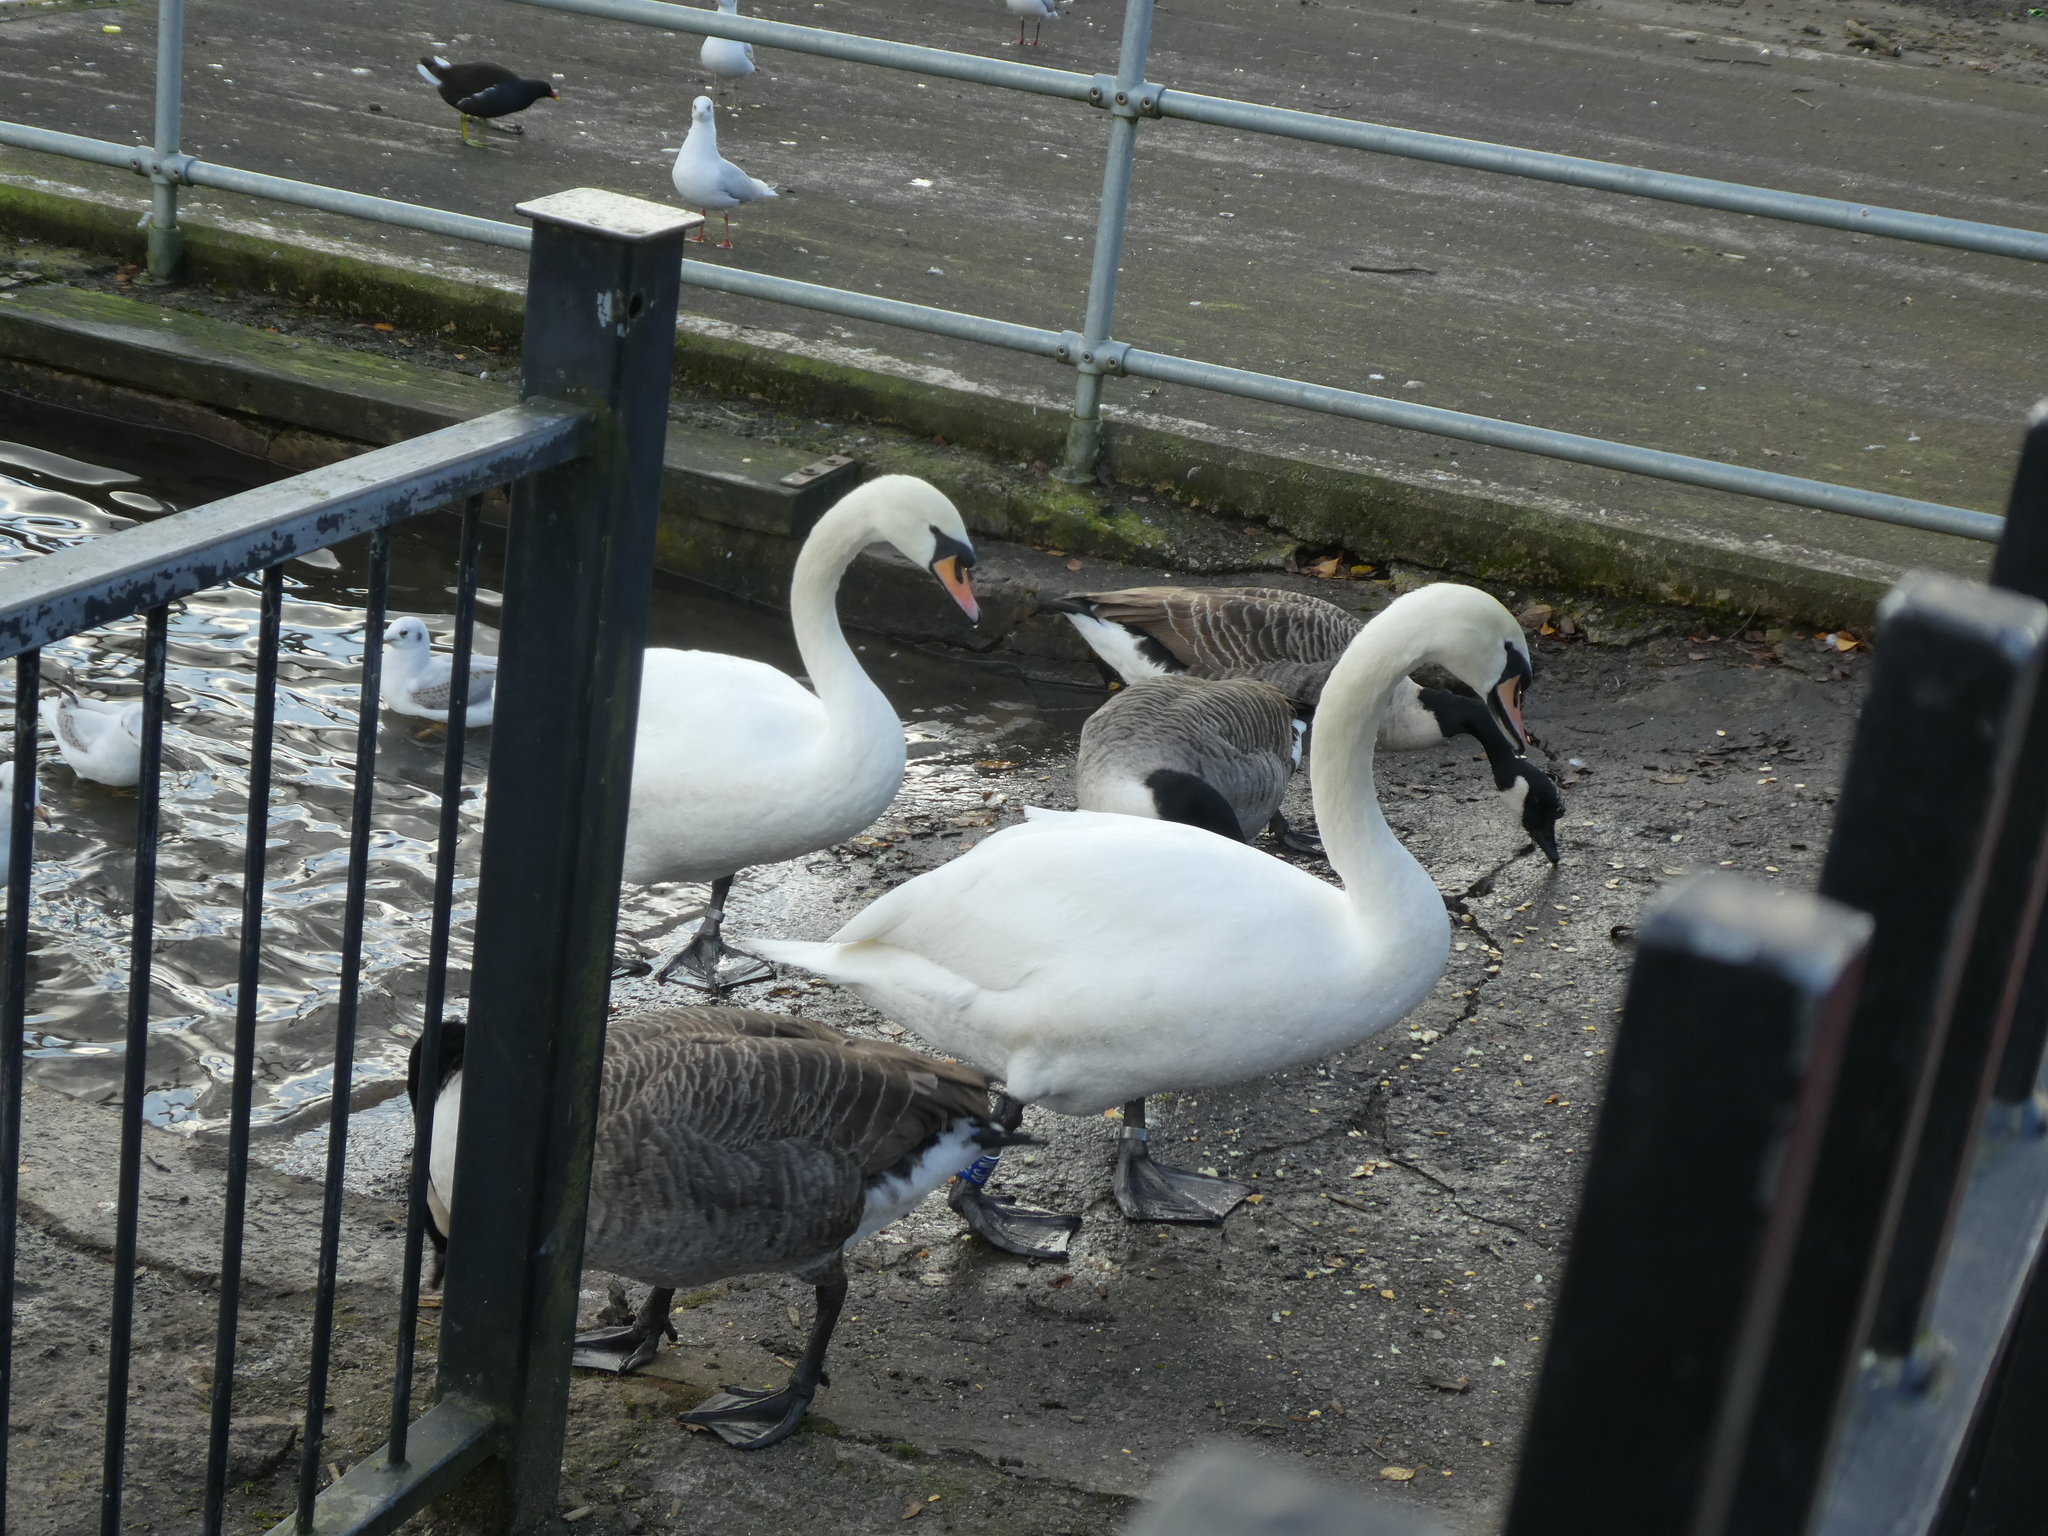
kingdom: Animalia
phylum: Chordata
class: Aves
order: Anseriformes
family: Anatidae
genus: Cygnus
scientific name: Cygnus olor
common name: Mute swan
